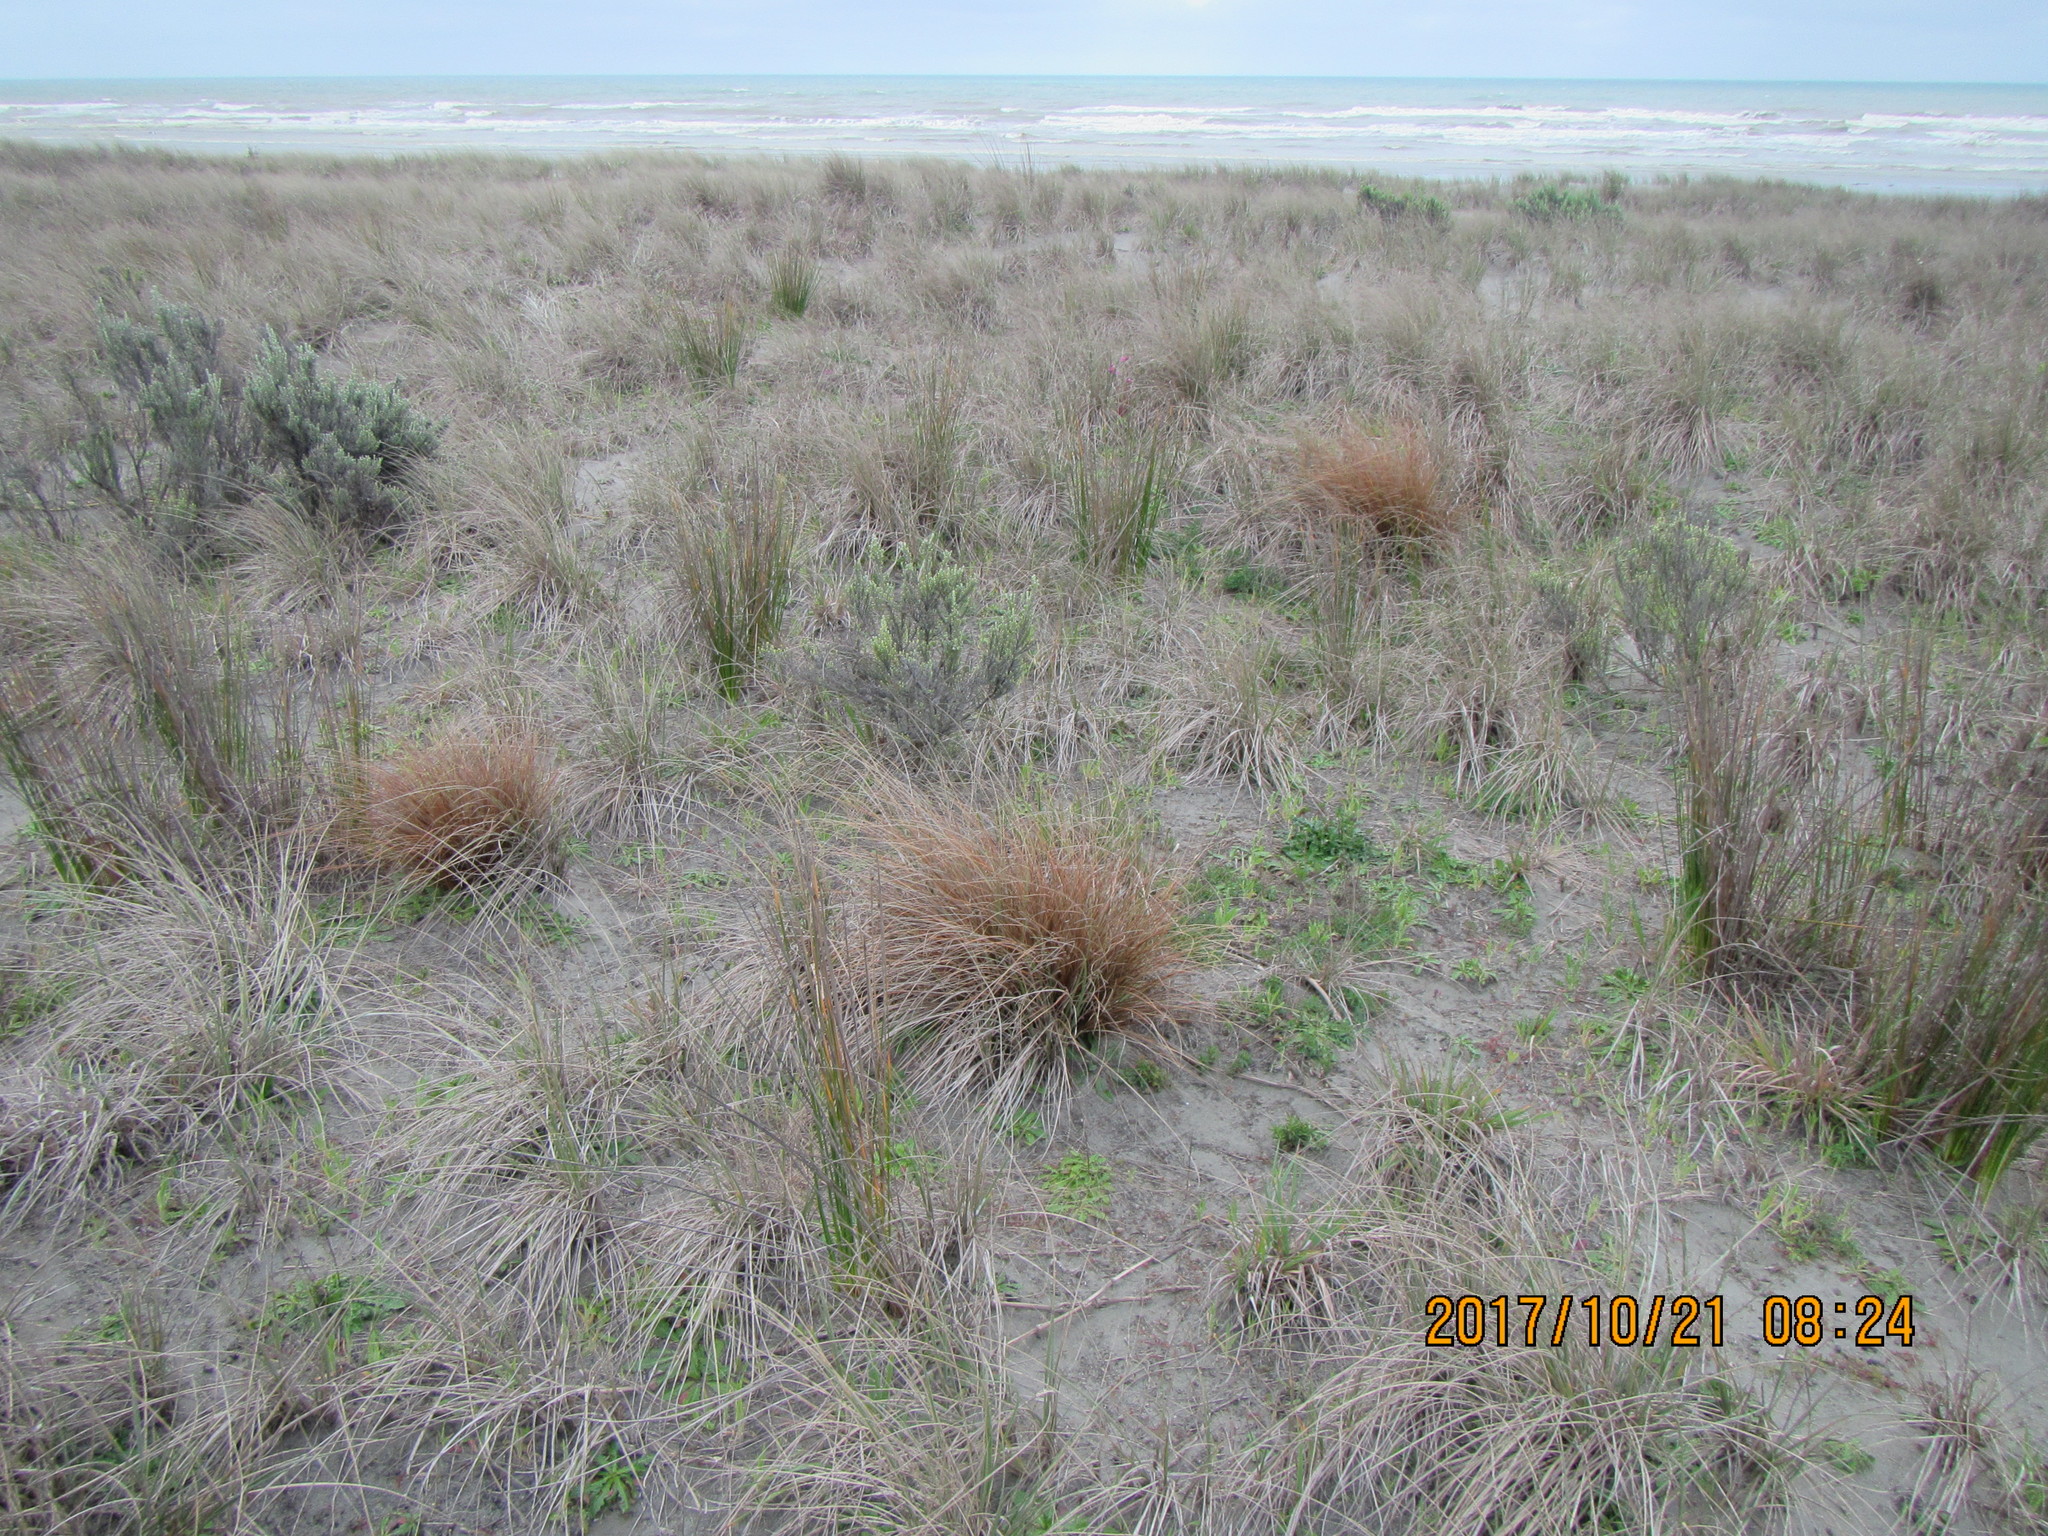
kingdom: Plantae
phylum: Tracheophyta
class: Liliopsida
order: Poales
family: Cyperaceae
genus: Carex
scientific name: Carex testacea
